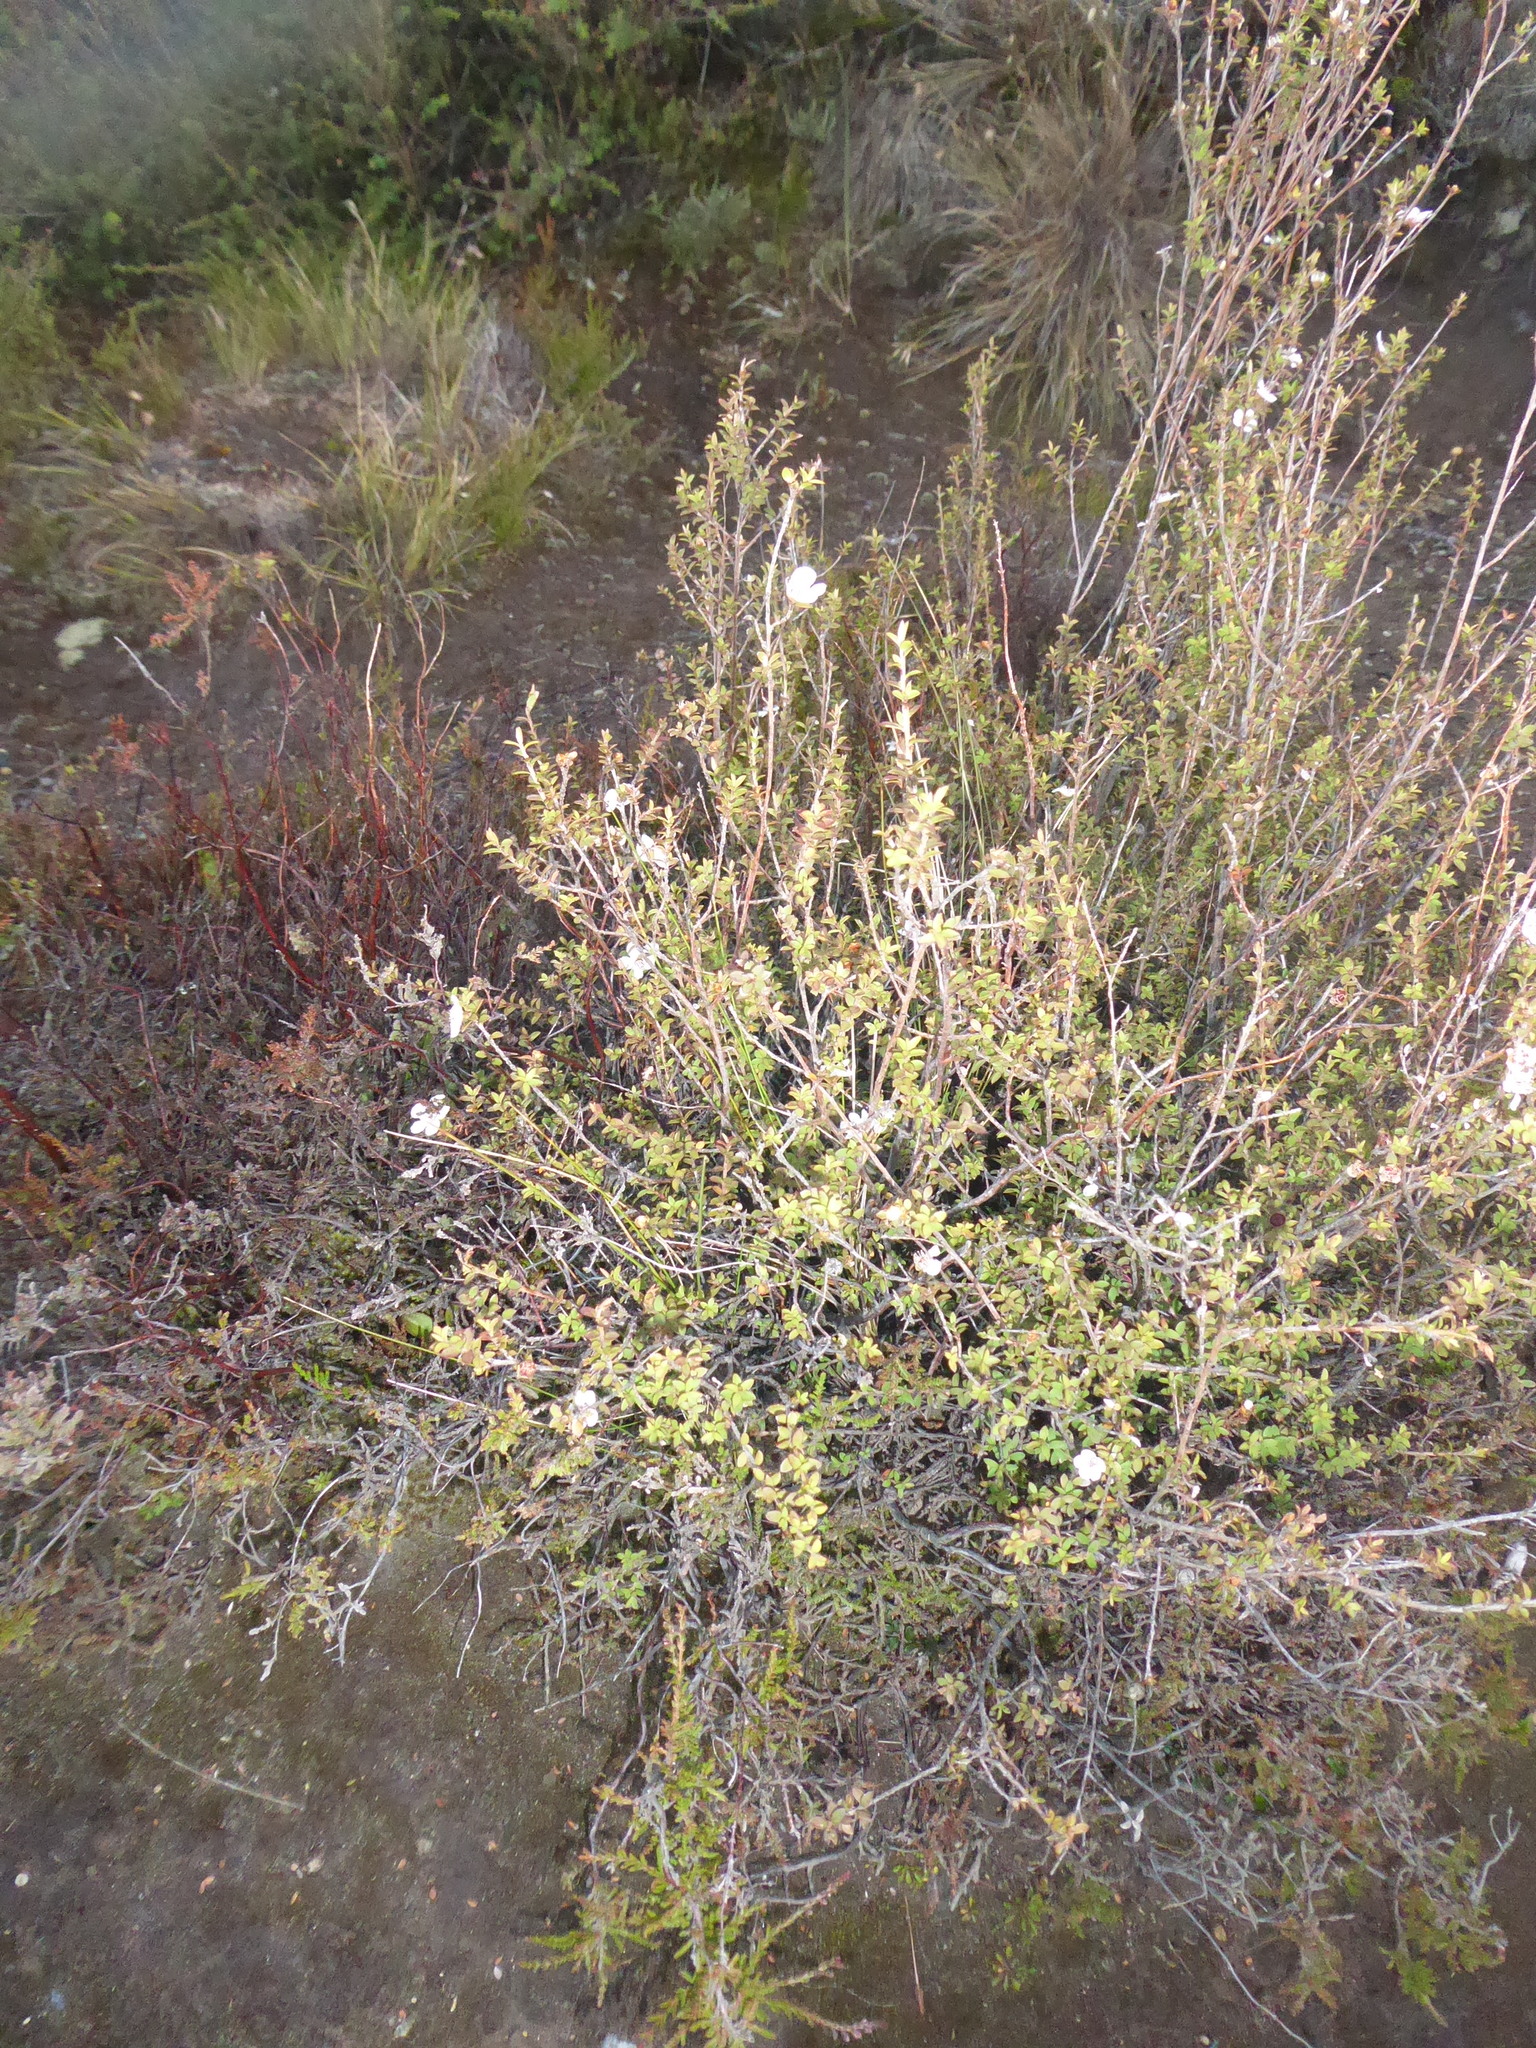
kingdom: Plantae
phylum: Tracheophyta
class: Magnoliopsida
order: Myrtales
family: Myrtaceae
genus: Leptospermum
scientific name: Leptospermum scoparium
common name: Broom tea-tree
